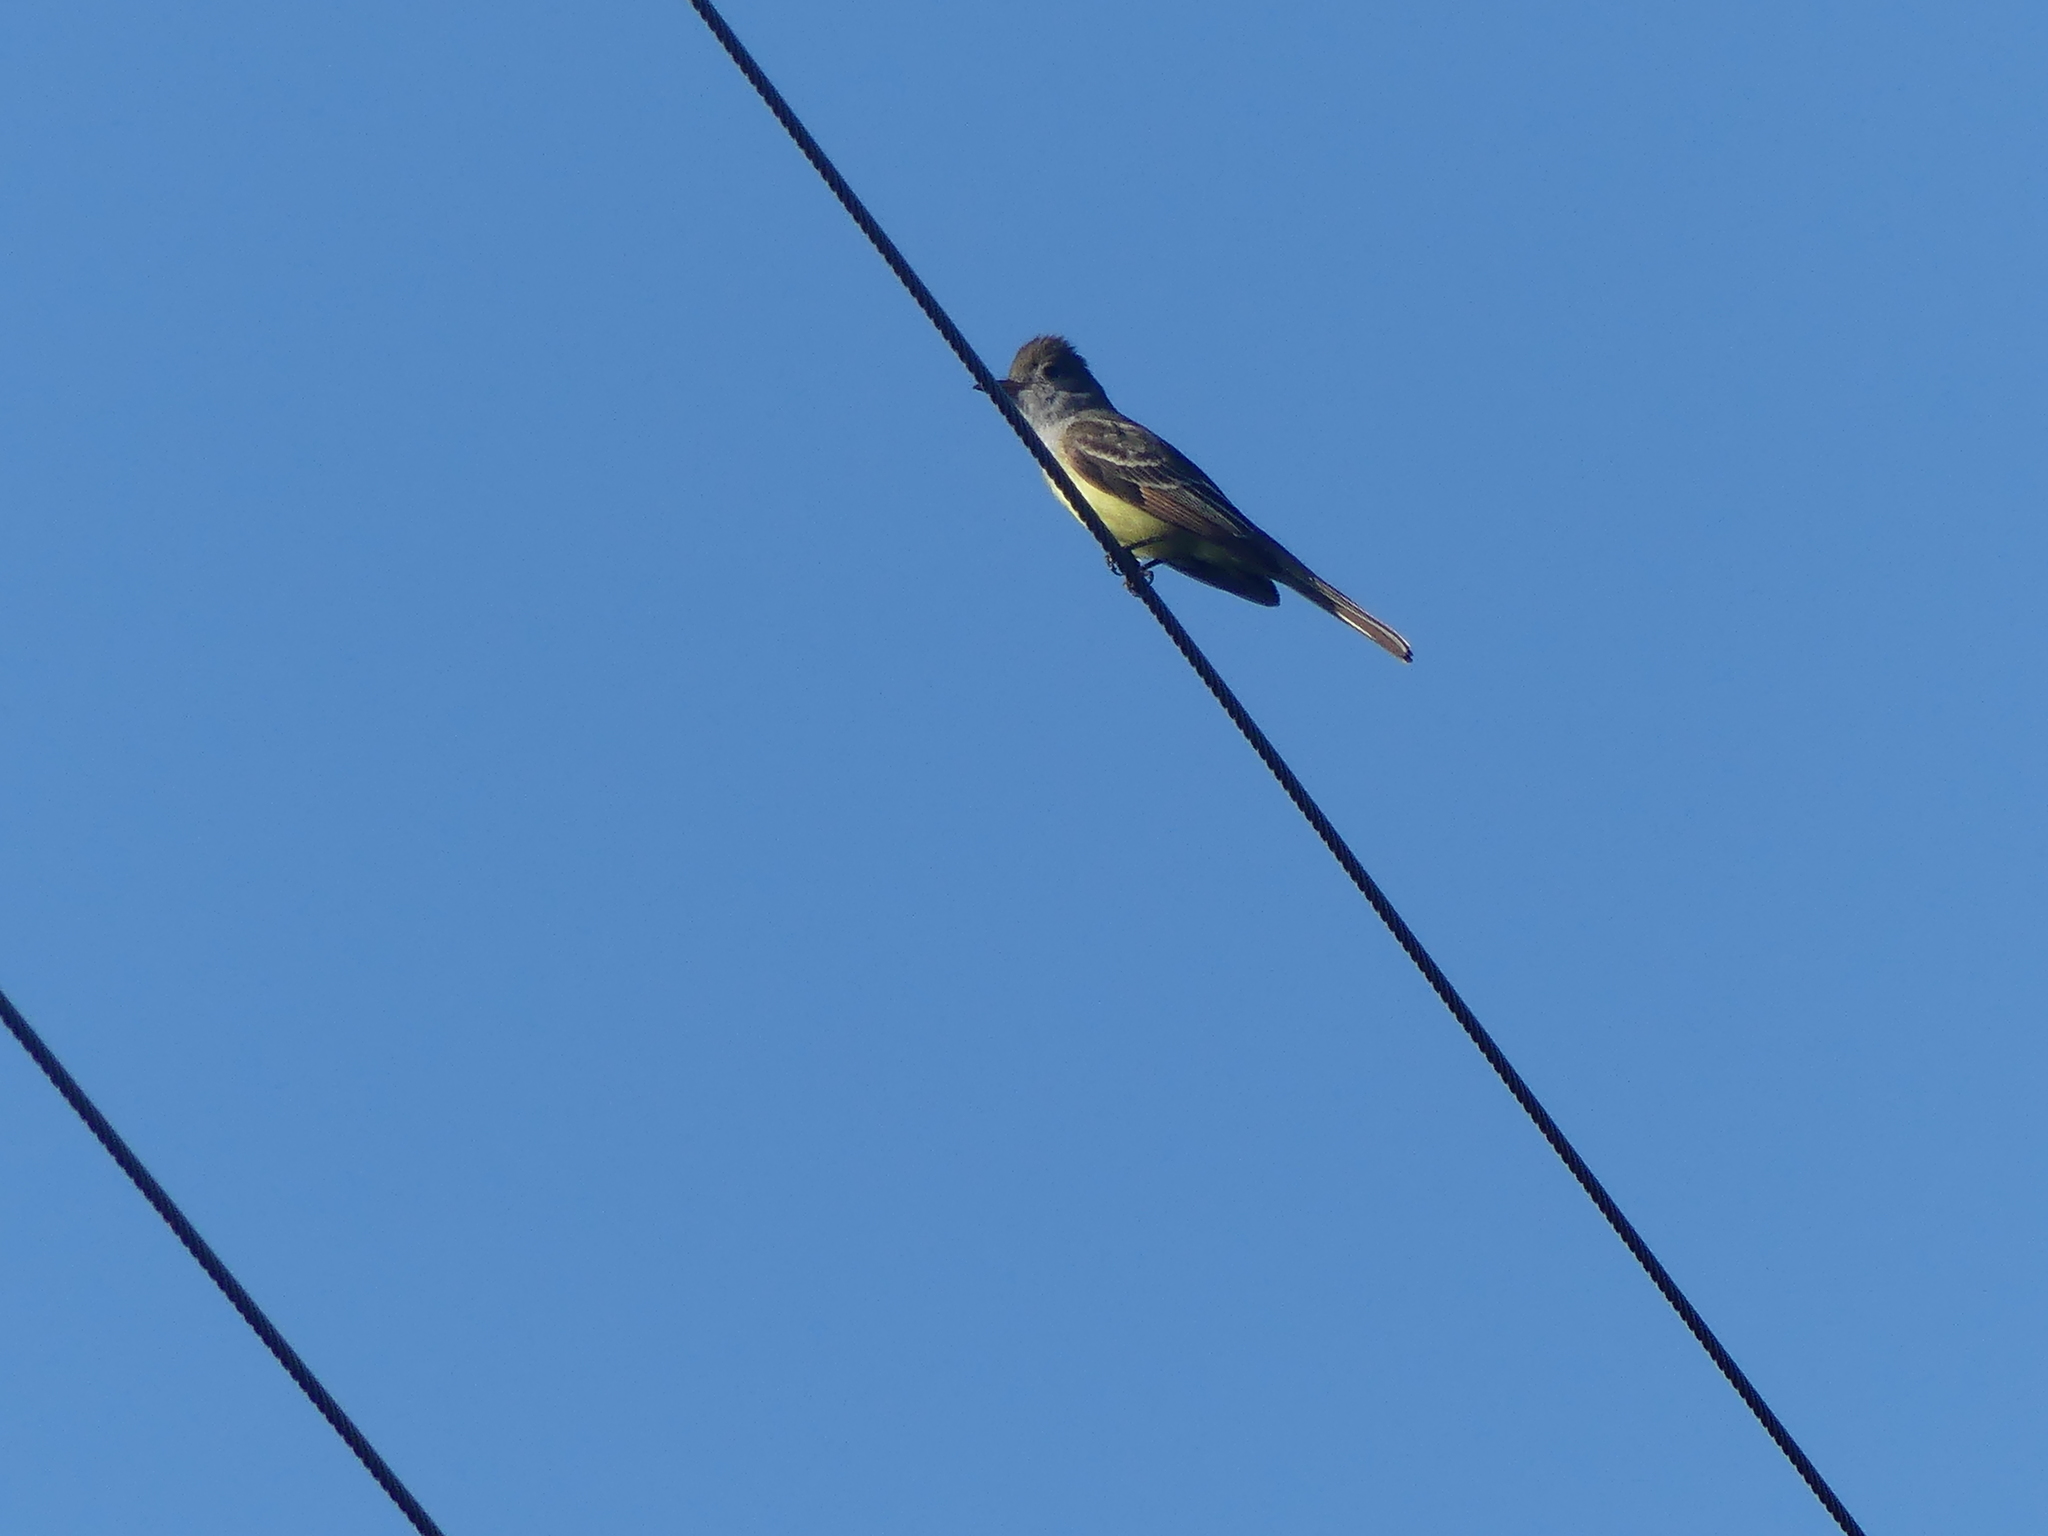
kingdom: Animalia
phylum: Chordata
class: Aves
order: Passeriformes
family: Tyrannidae
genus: Myiarchus
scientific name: Myiarchus crinitus
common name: Great crested flycatcher
